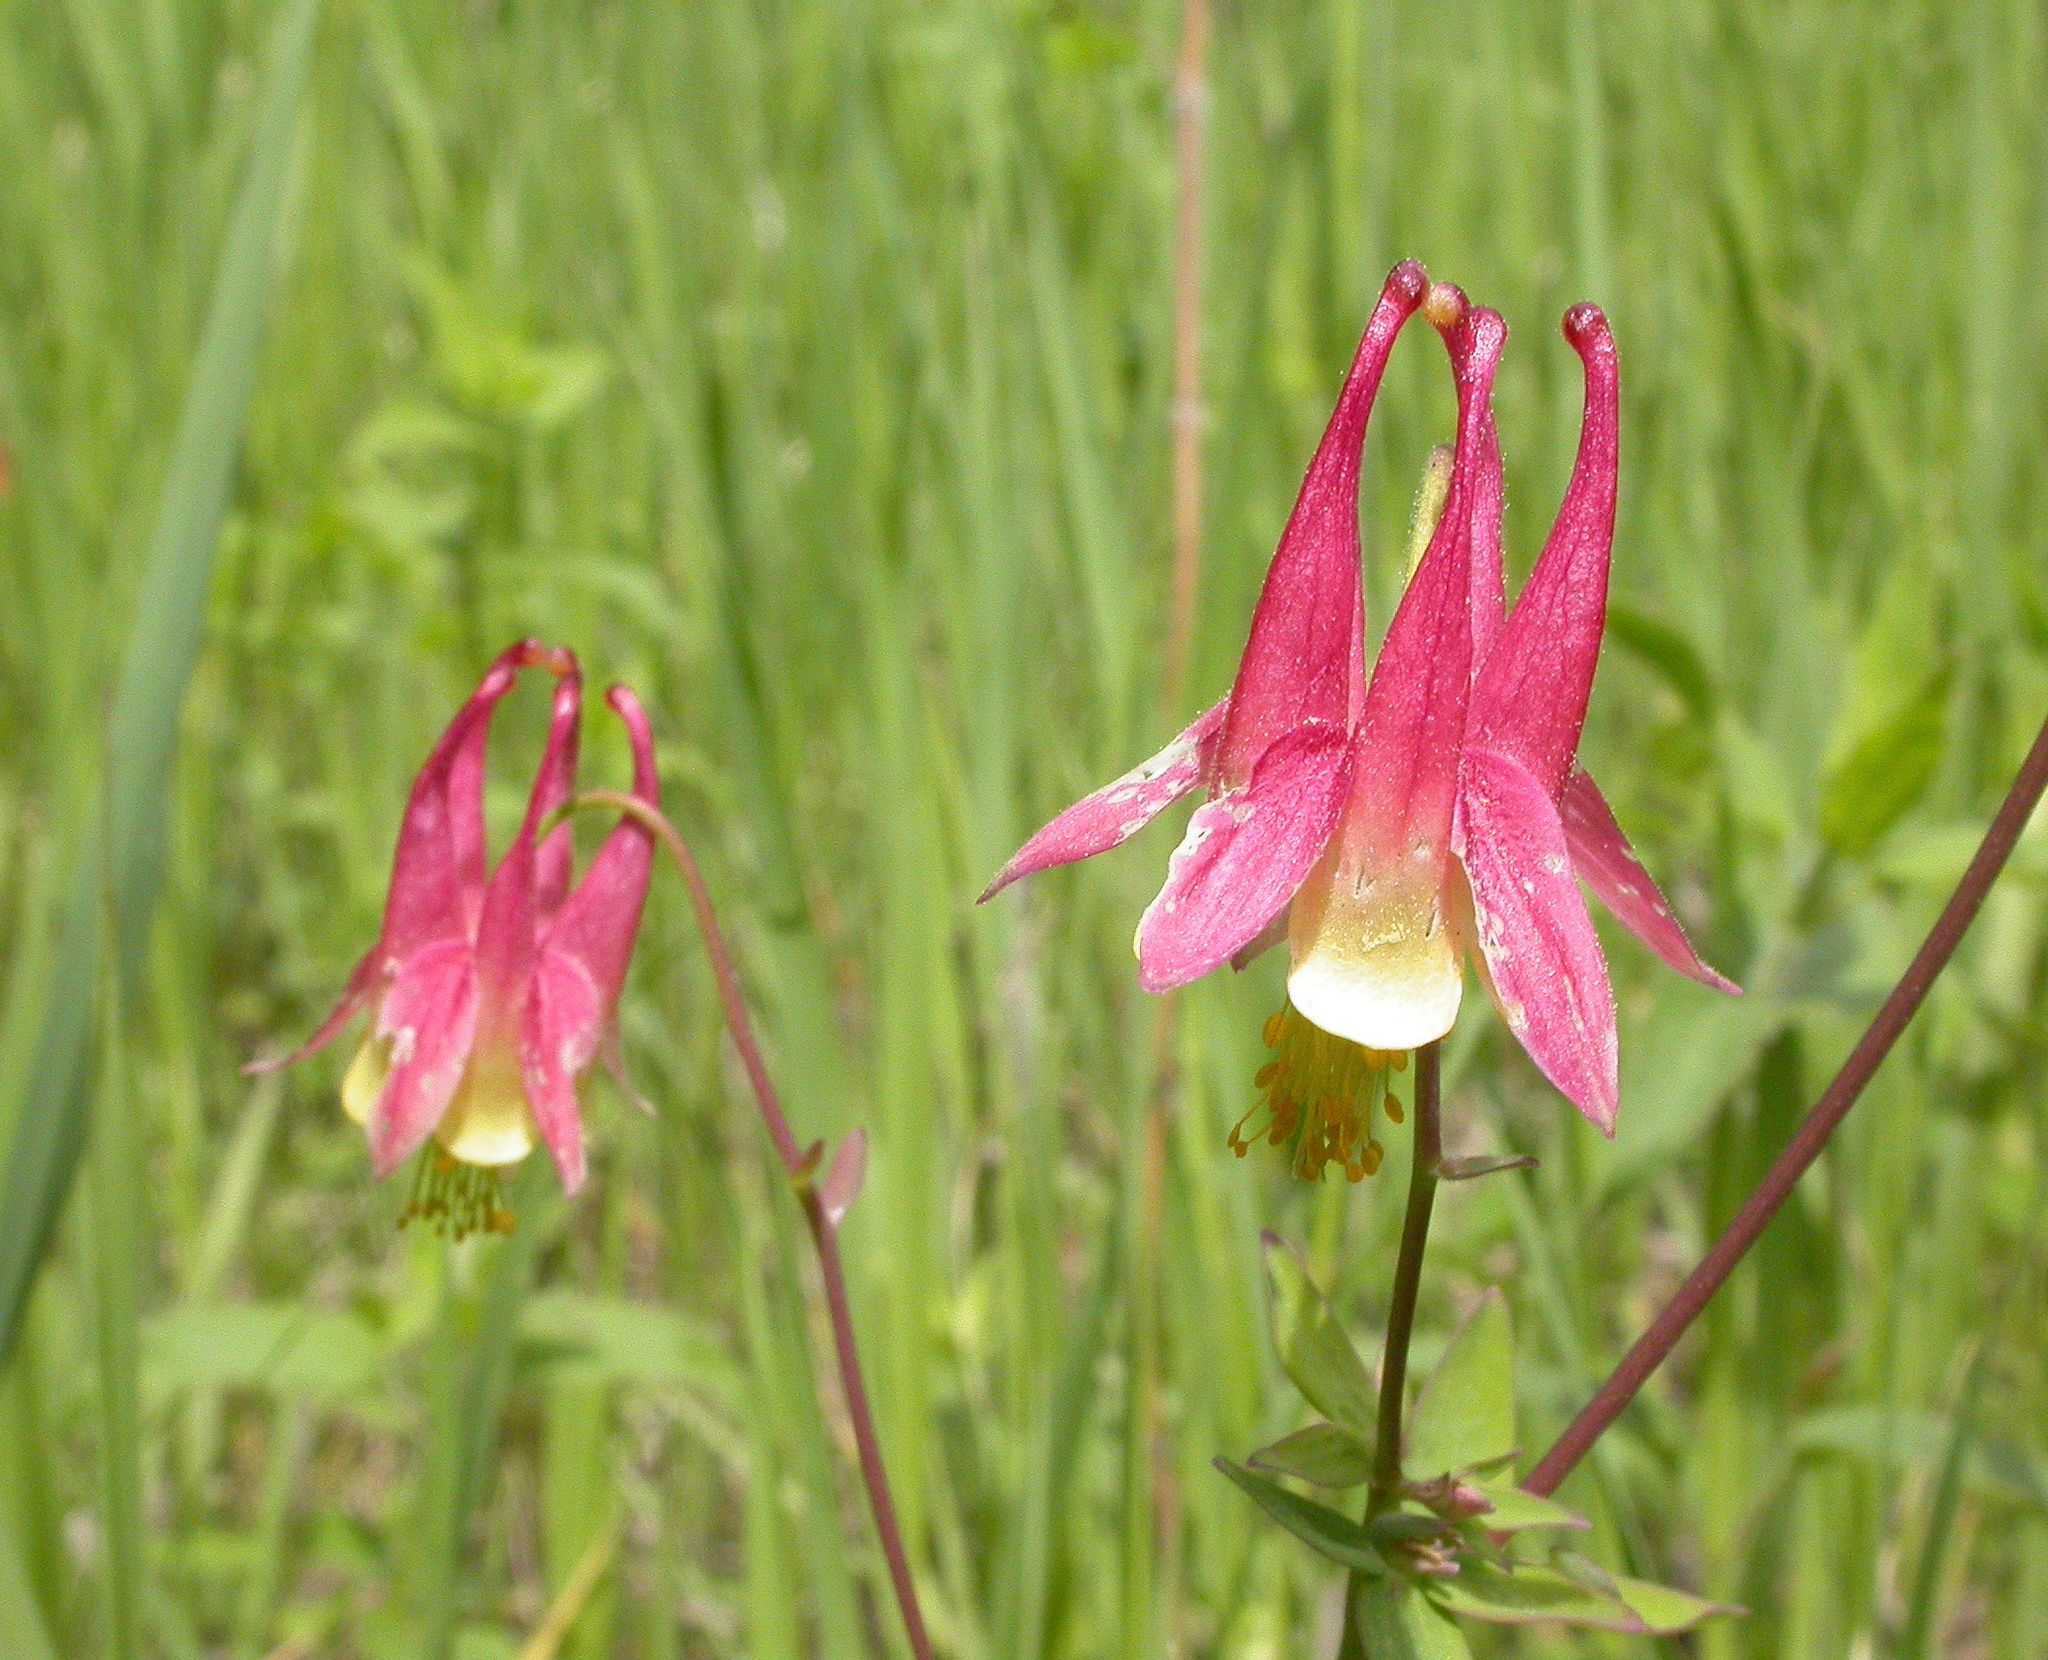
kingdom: Plantae
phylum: Tracheophyta
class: Magnoliopsida
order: Ranunculales
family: Ranunculaceae
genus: Aquilegia
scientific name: Aquilegia canadensis
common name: American columbine
